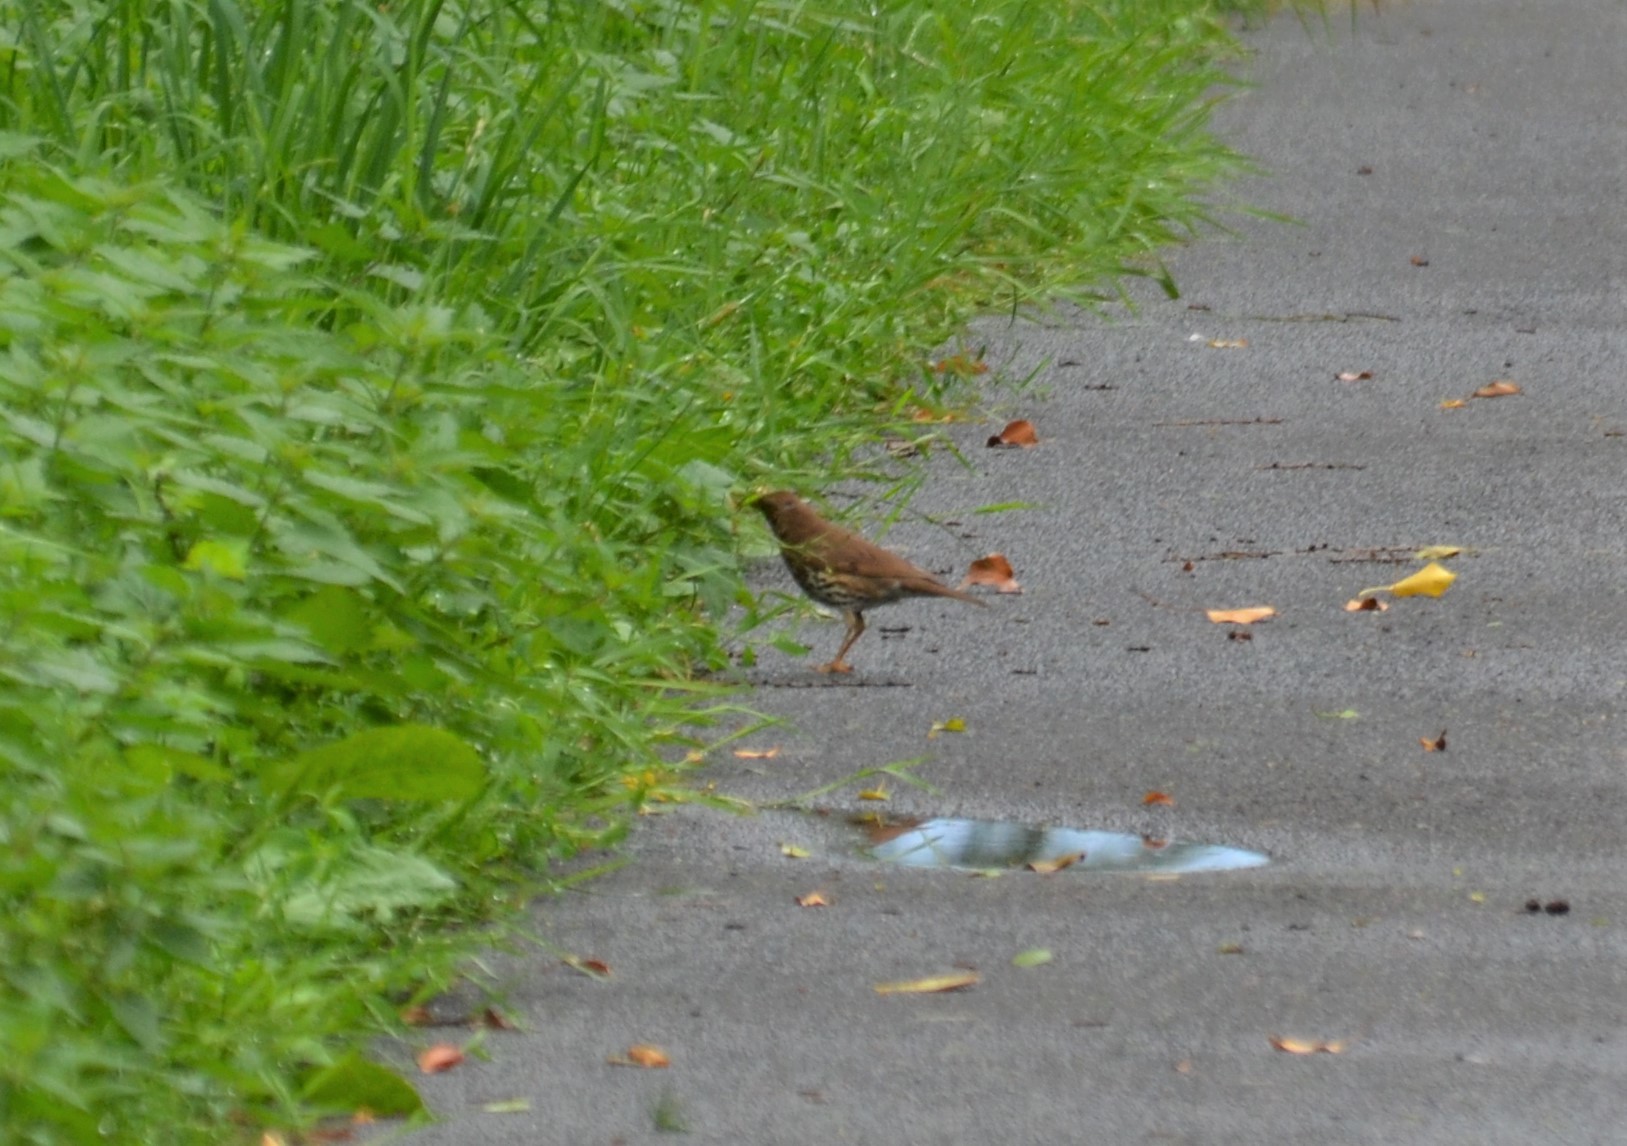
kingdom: Animalia
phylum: Chordata
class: Aves
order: Passeriformes
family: Turdidae
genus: Turdus
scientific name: Turdus philomelos
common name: Song thrush
